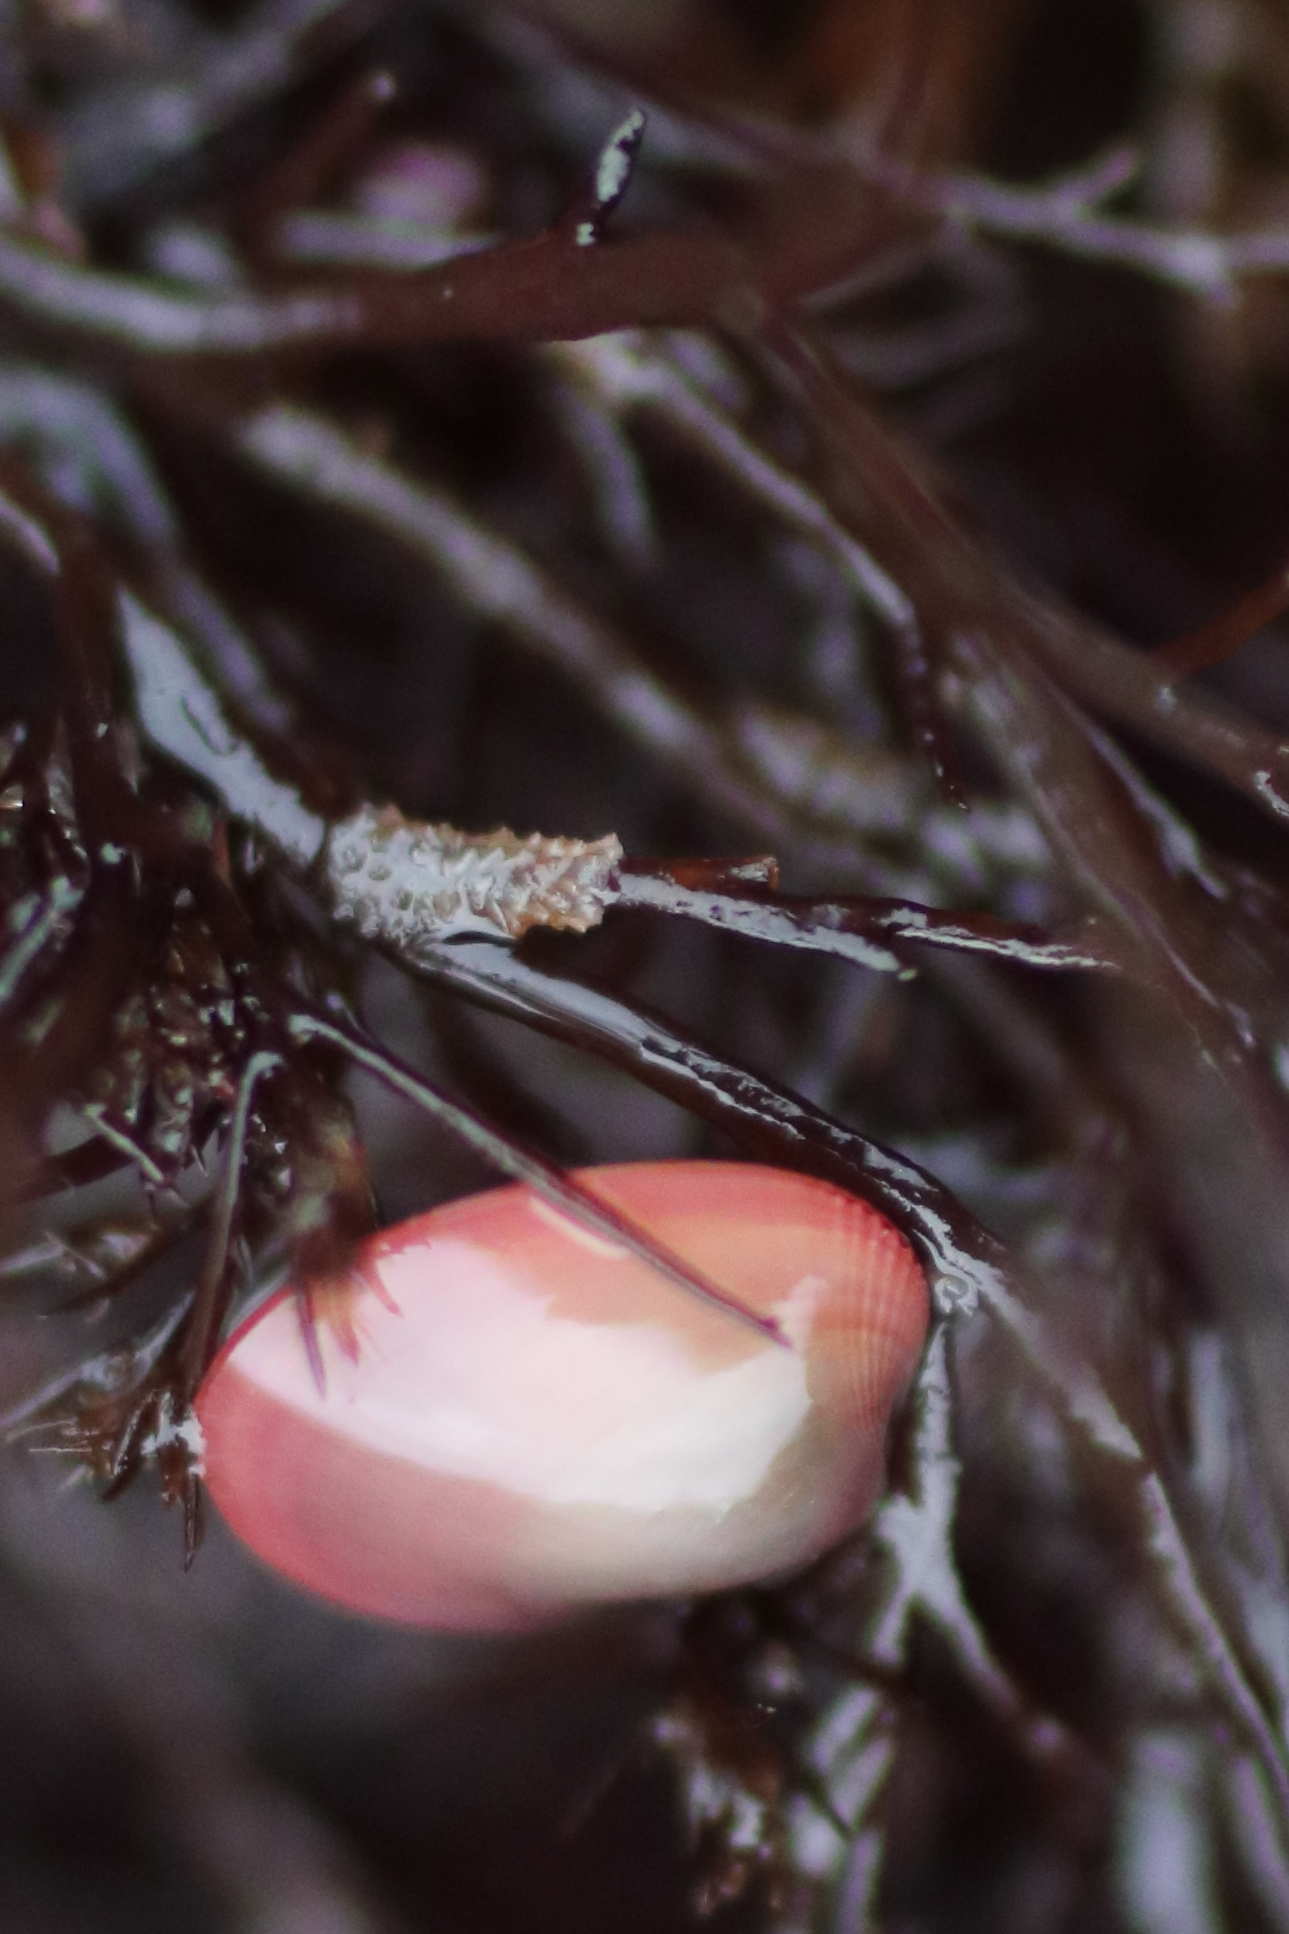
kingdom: Animalia
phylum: Mollusca
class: Bivalvia
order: Mytilida
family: Mytilidae
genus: Musculus
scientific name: Musculus discors
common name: Green crenella
